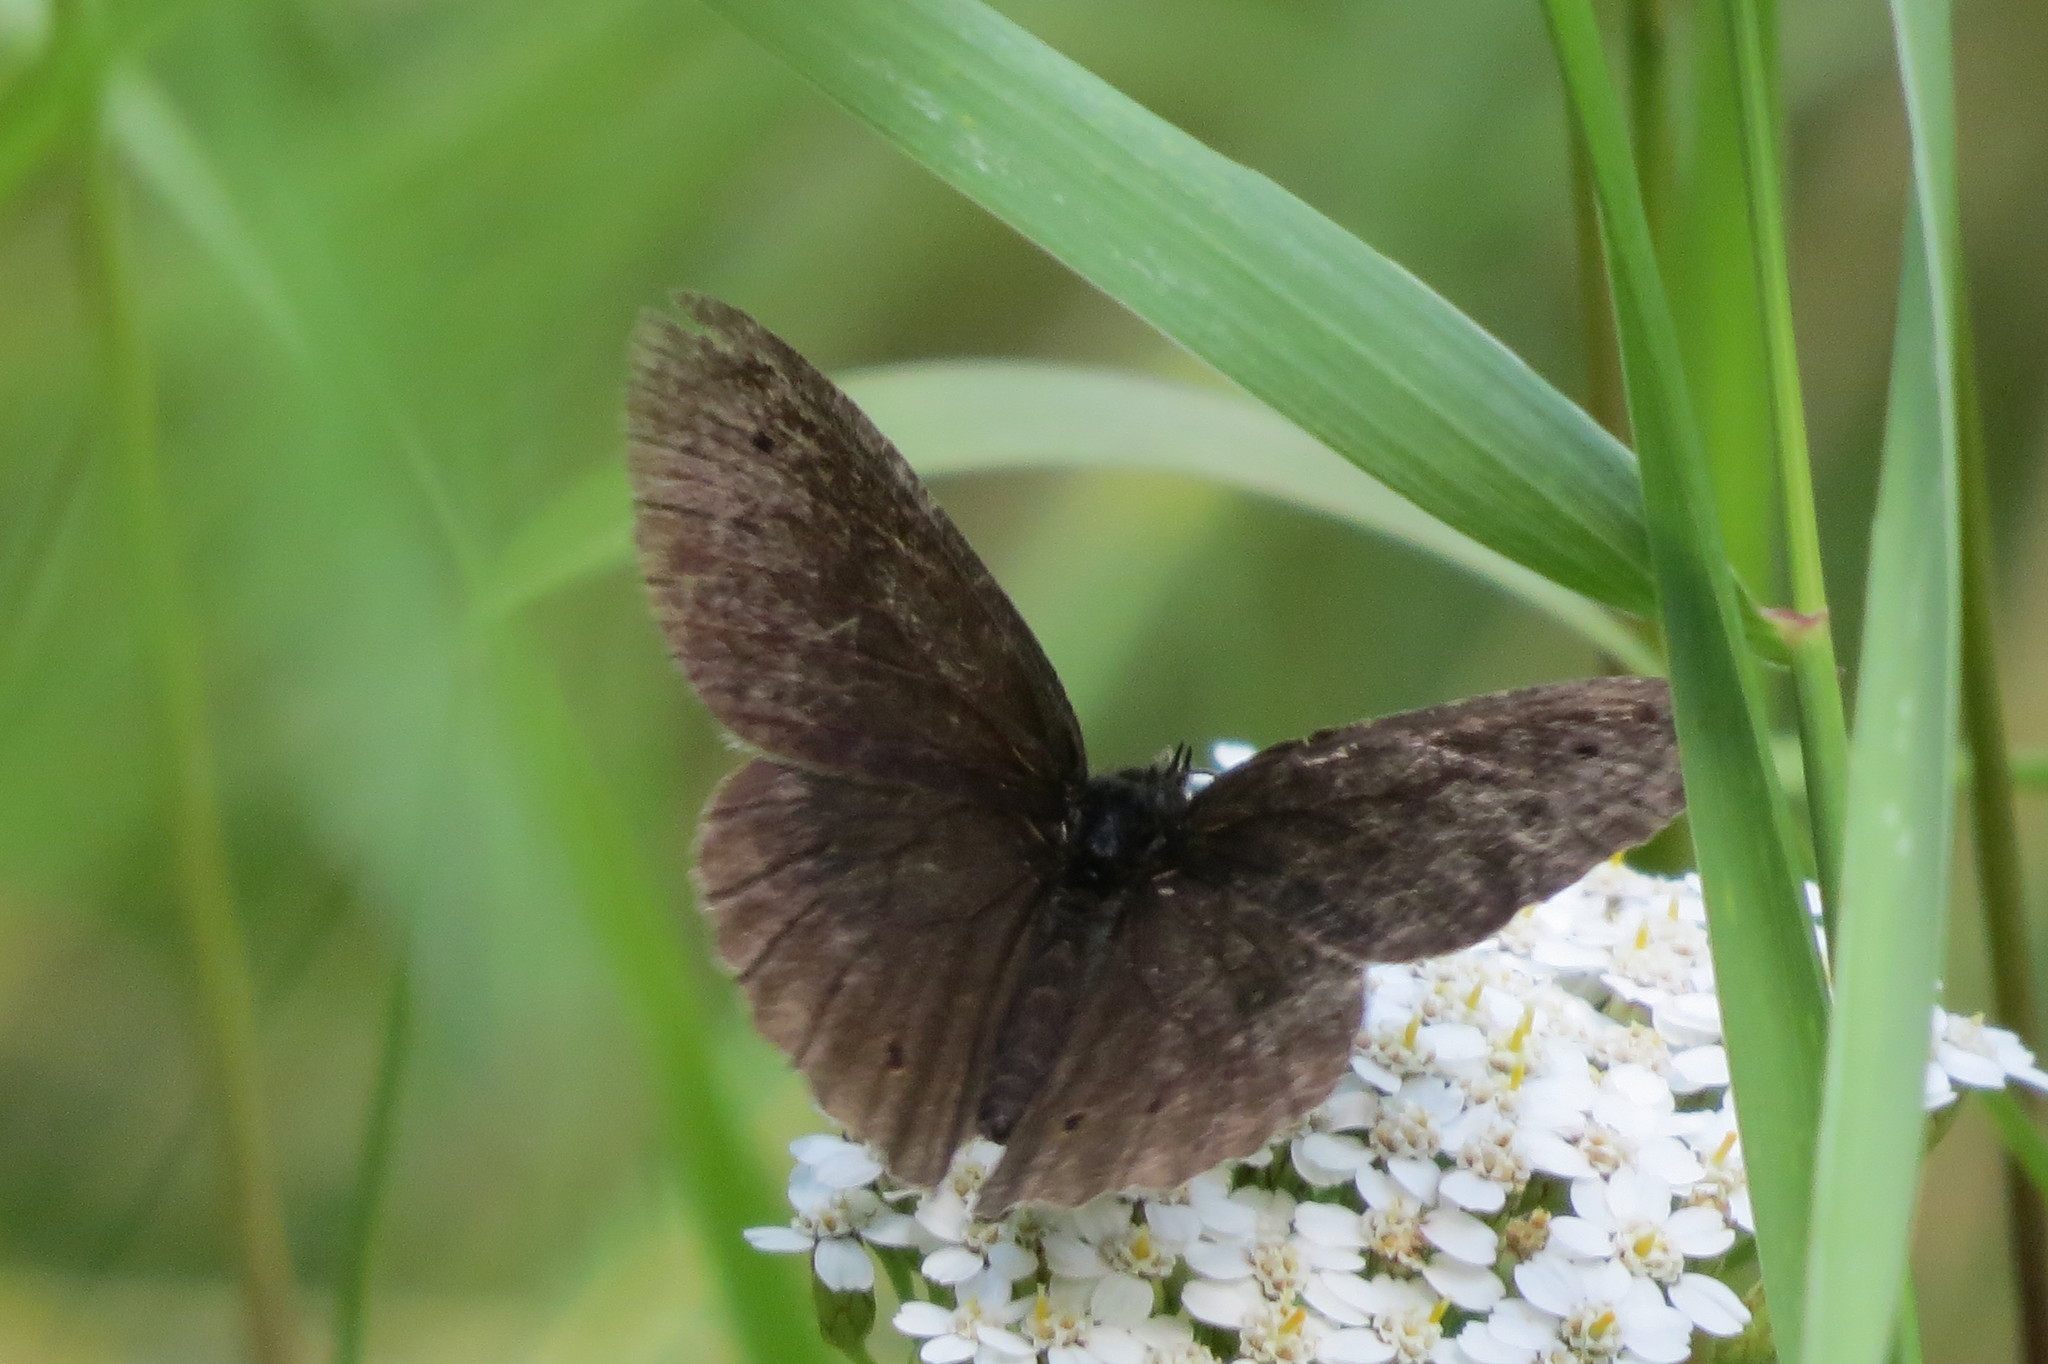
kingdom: Animalia
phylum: Arthropoda
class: Insecta
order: Lepidoptera
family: Nymphalidae
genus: Aphantopus
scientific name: Aphantopus hyperantus
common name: Ringlet
